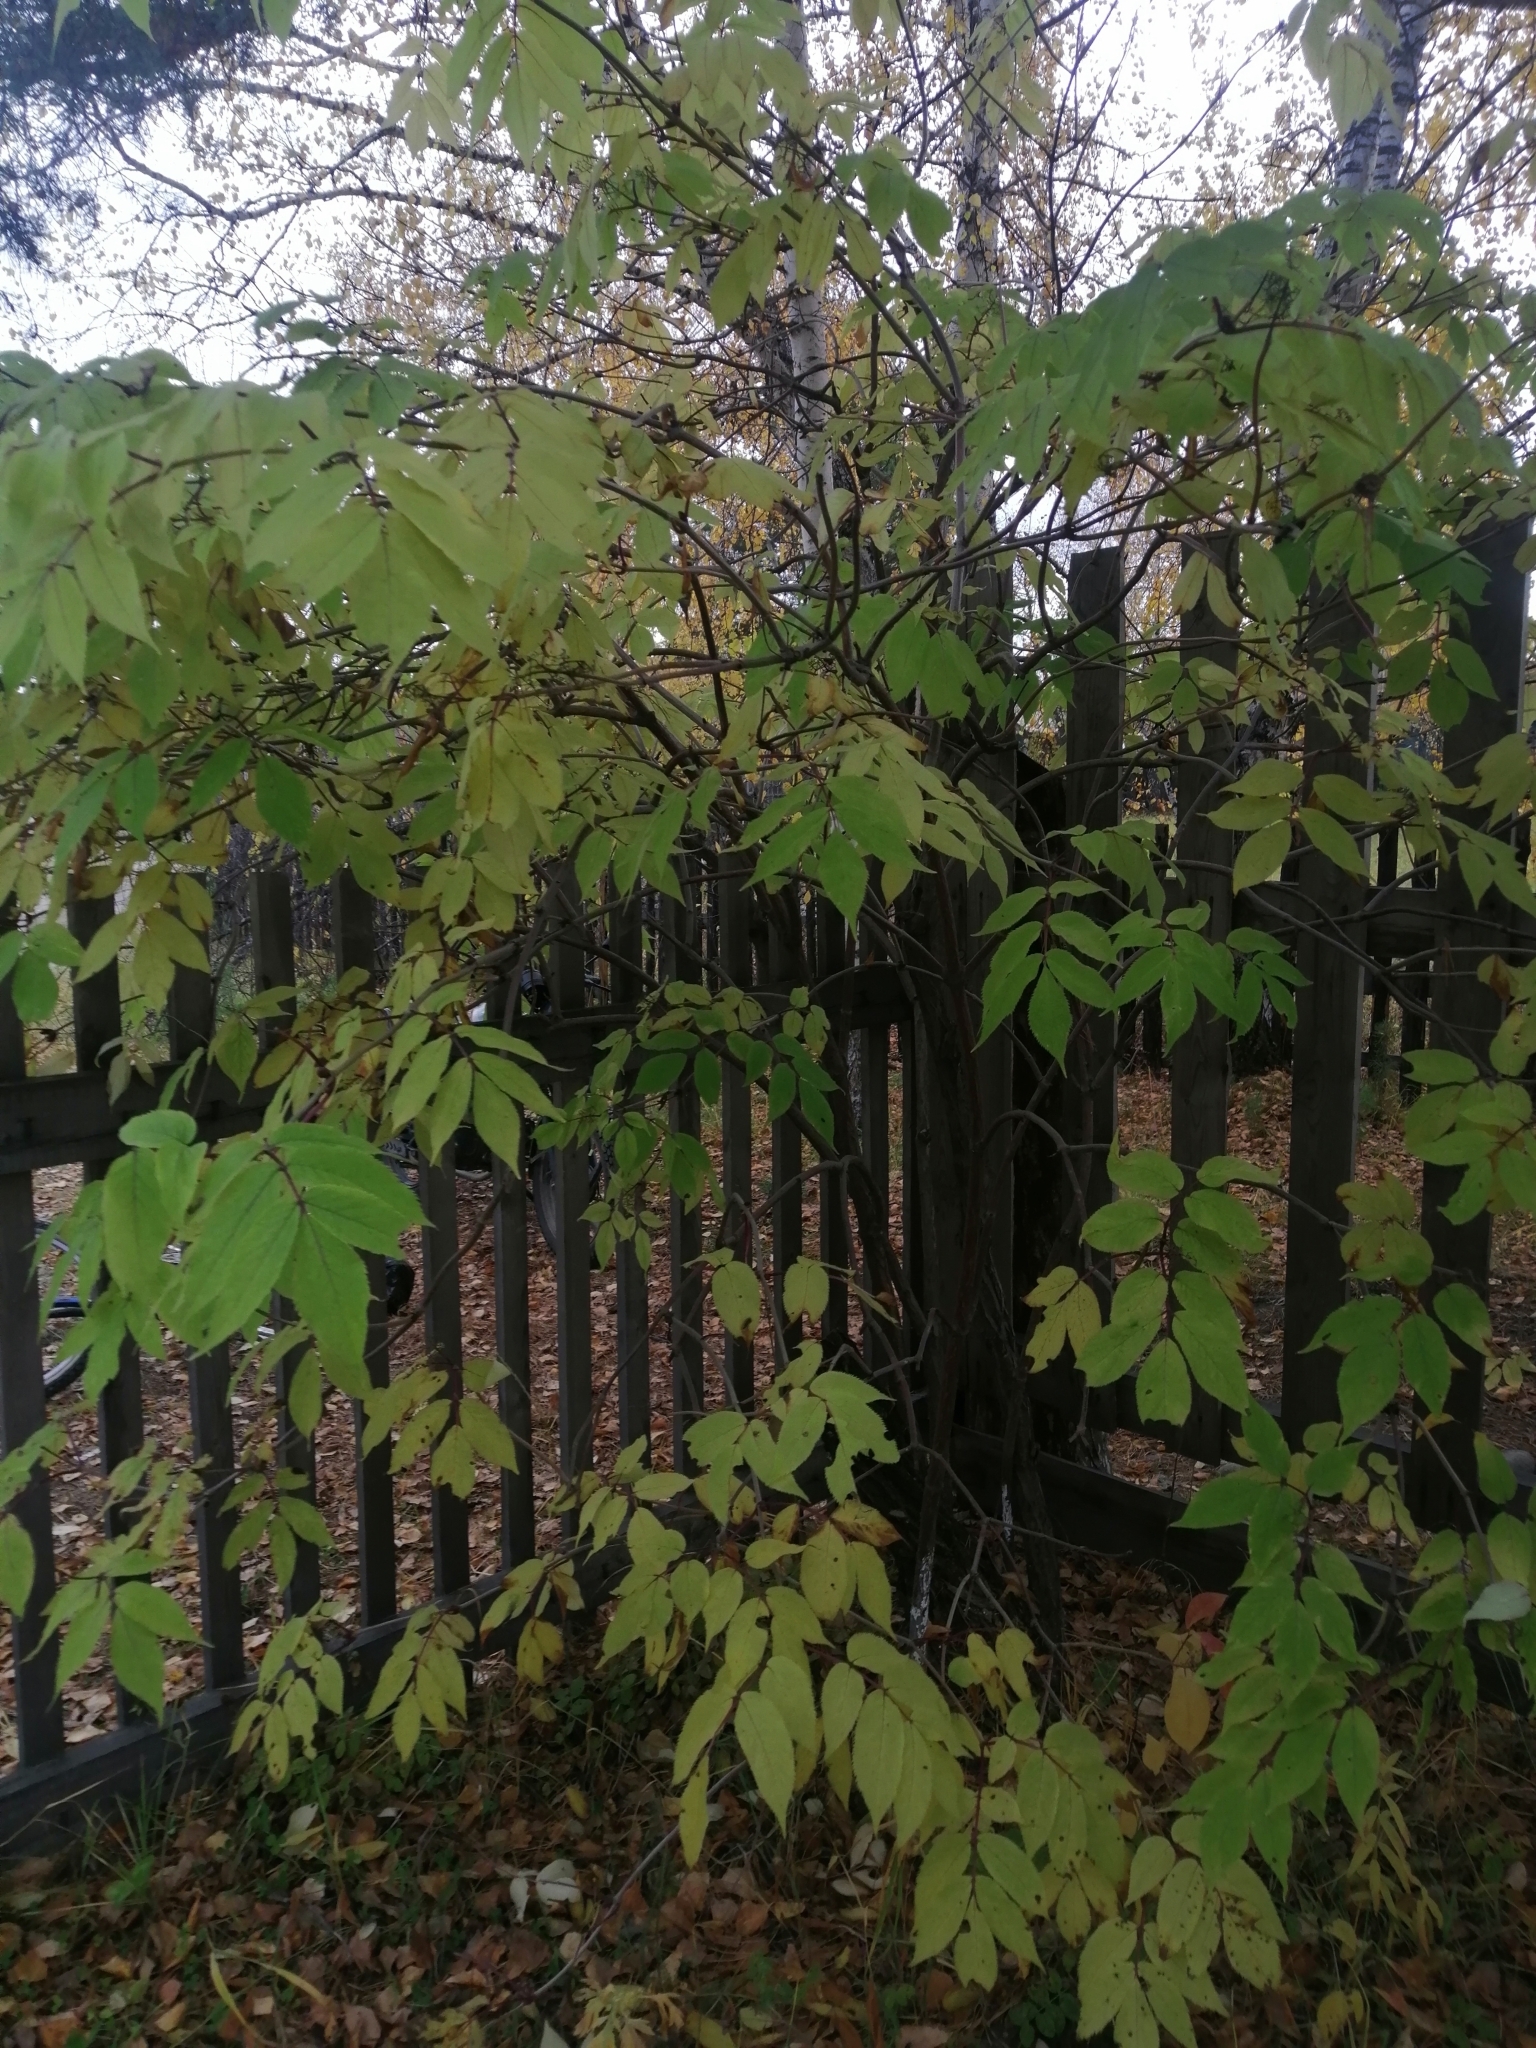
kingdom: Plantae
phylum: Tracheophyta
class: Magnoliopsida
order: Dipsacales
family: Viburnaceae
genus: Sambucus
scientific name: Sambucus sibirica
